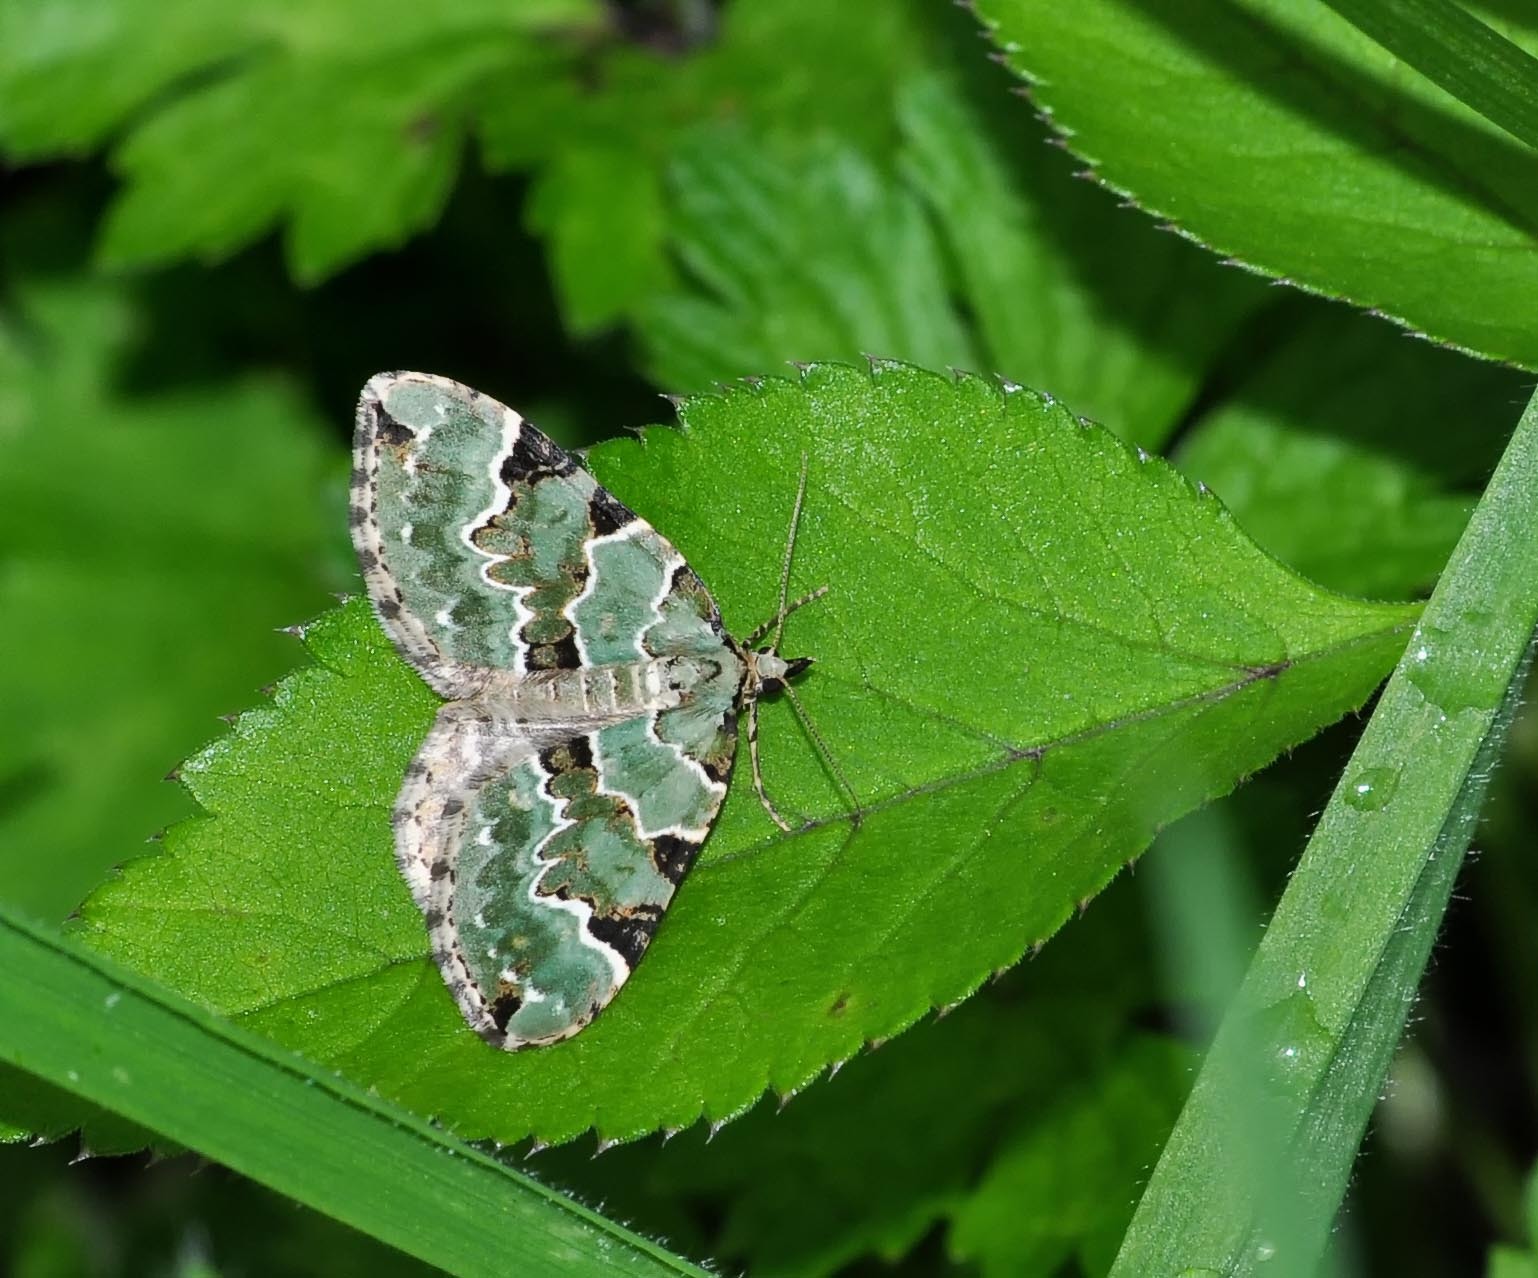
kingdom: Animalia
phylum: Arthropoda
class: Insecta
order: Lepidoptera
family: Geometridae
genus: Colostygia
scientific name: Colostygia pectinataria
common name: Green carpet
